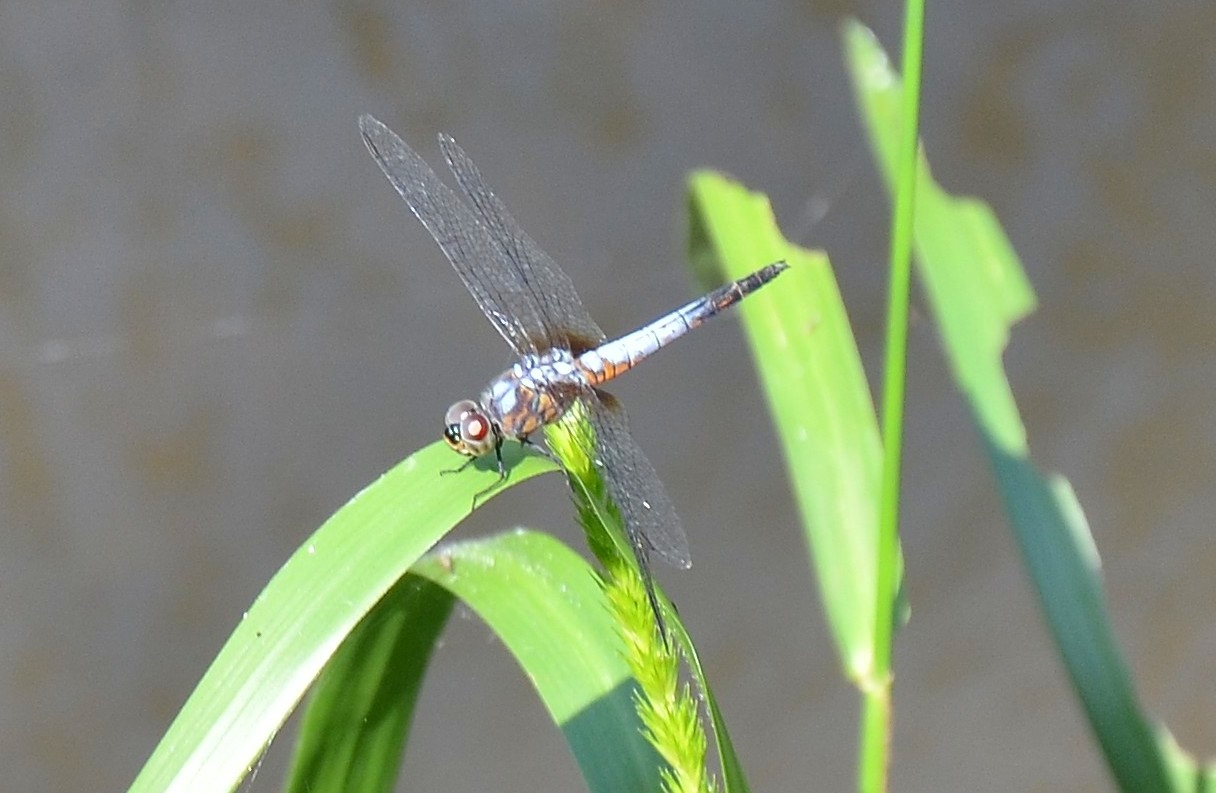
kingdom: Animalia
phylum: Arthropoda
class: Insecta
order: Odonata
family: Libellulidae
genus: Brachydiplax
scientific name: Brachydiplax chalybea
